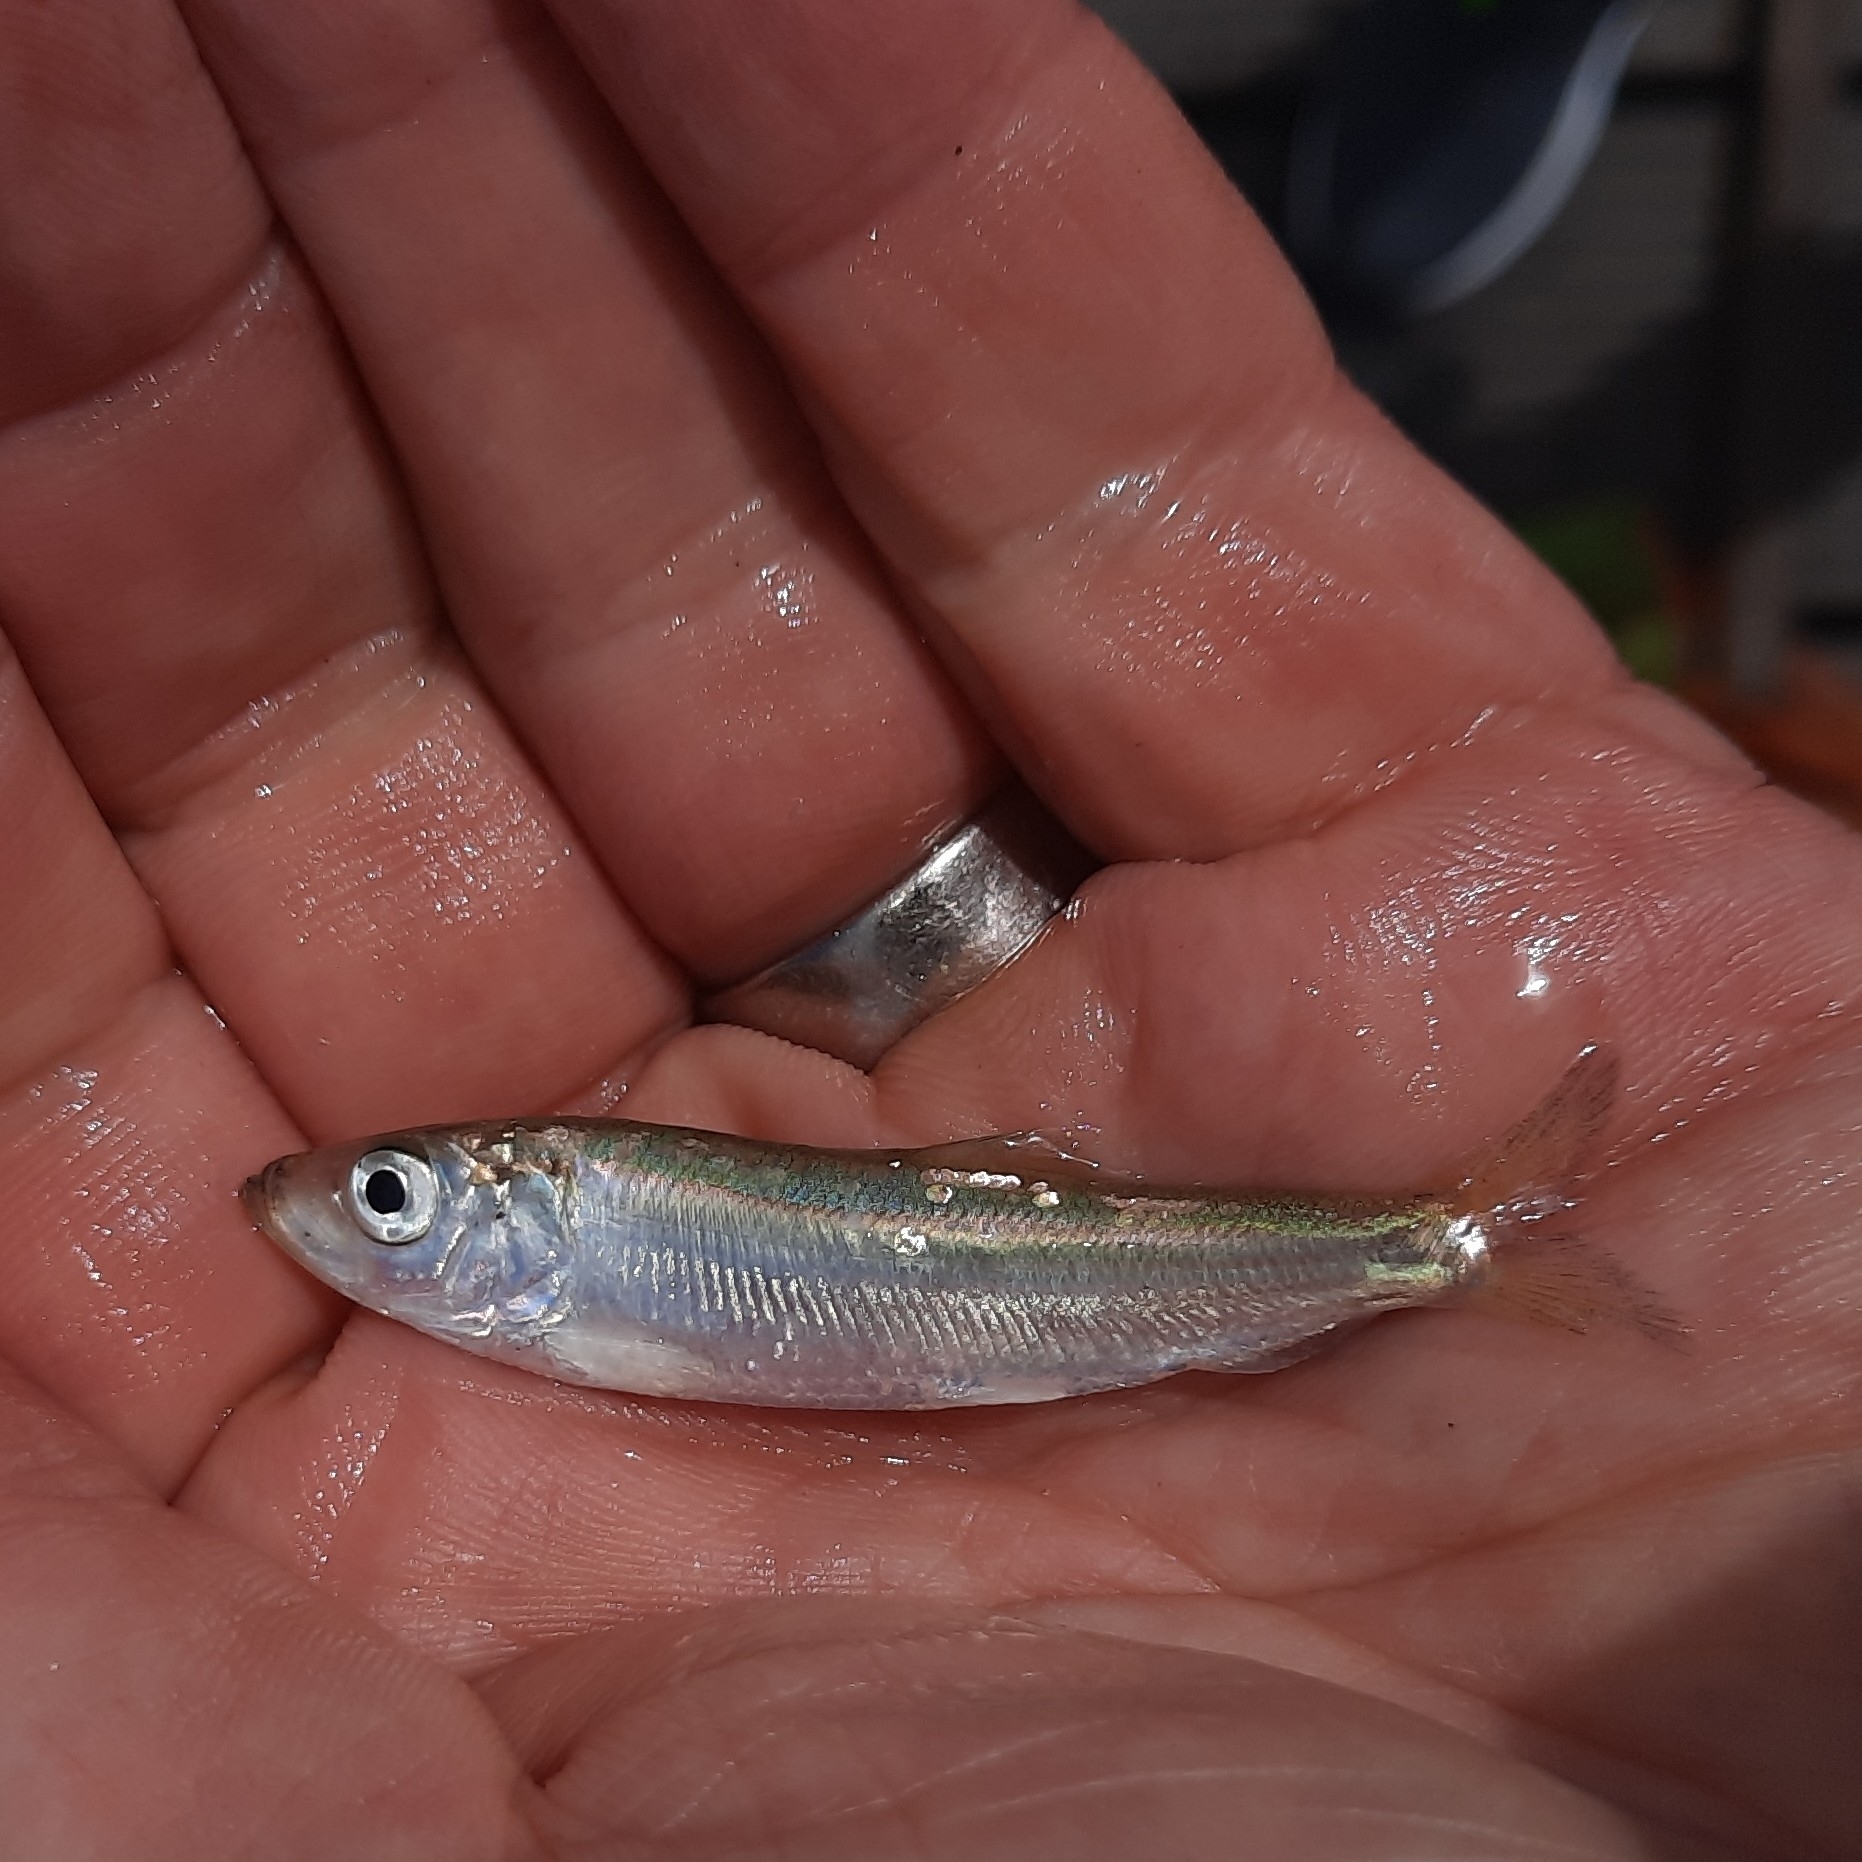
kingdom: Animalia
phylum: Chordata
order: Clupeiformes
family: Clupeidae
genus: Clupea
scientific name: Clupea harengus
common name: Herring
